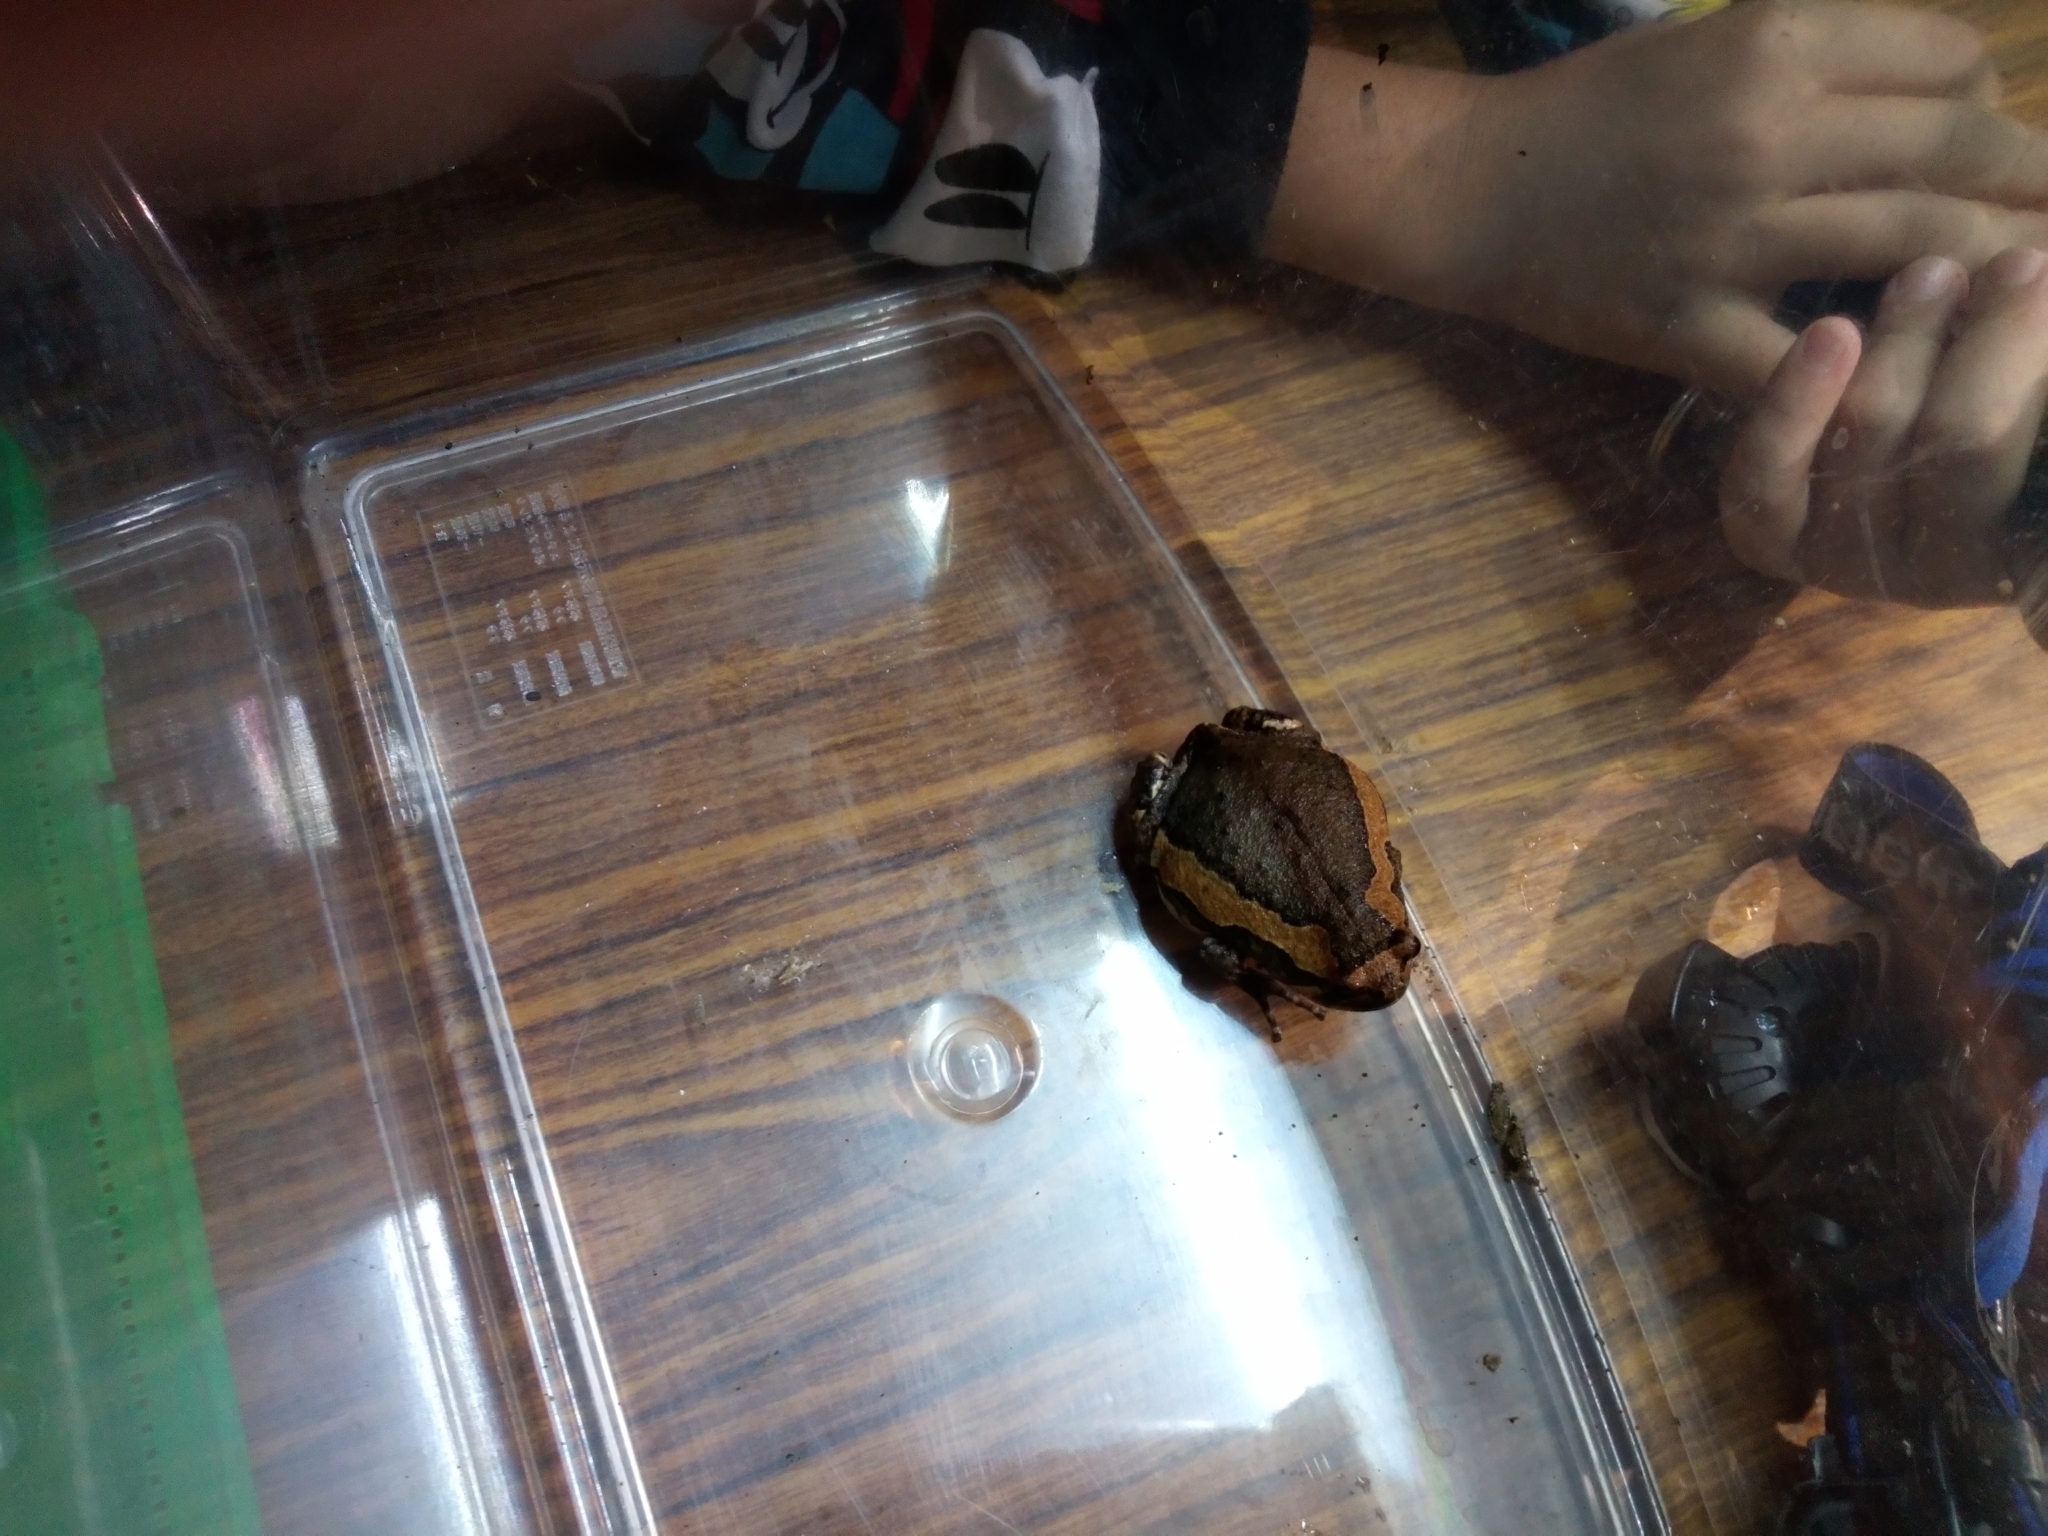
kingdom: Animalia
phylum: Chordata
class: Amphibia
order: Anura
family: Microhylidae
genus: Kaloula
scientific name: Kaloula pulchra
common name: Common,banded bullfrog
